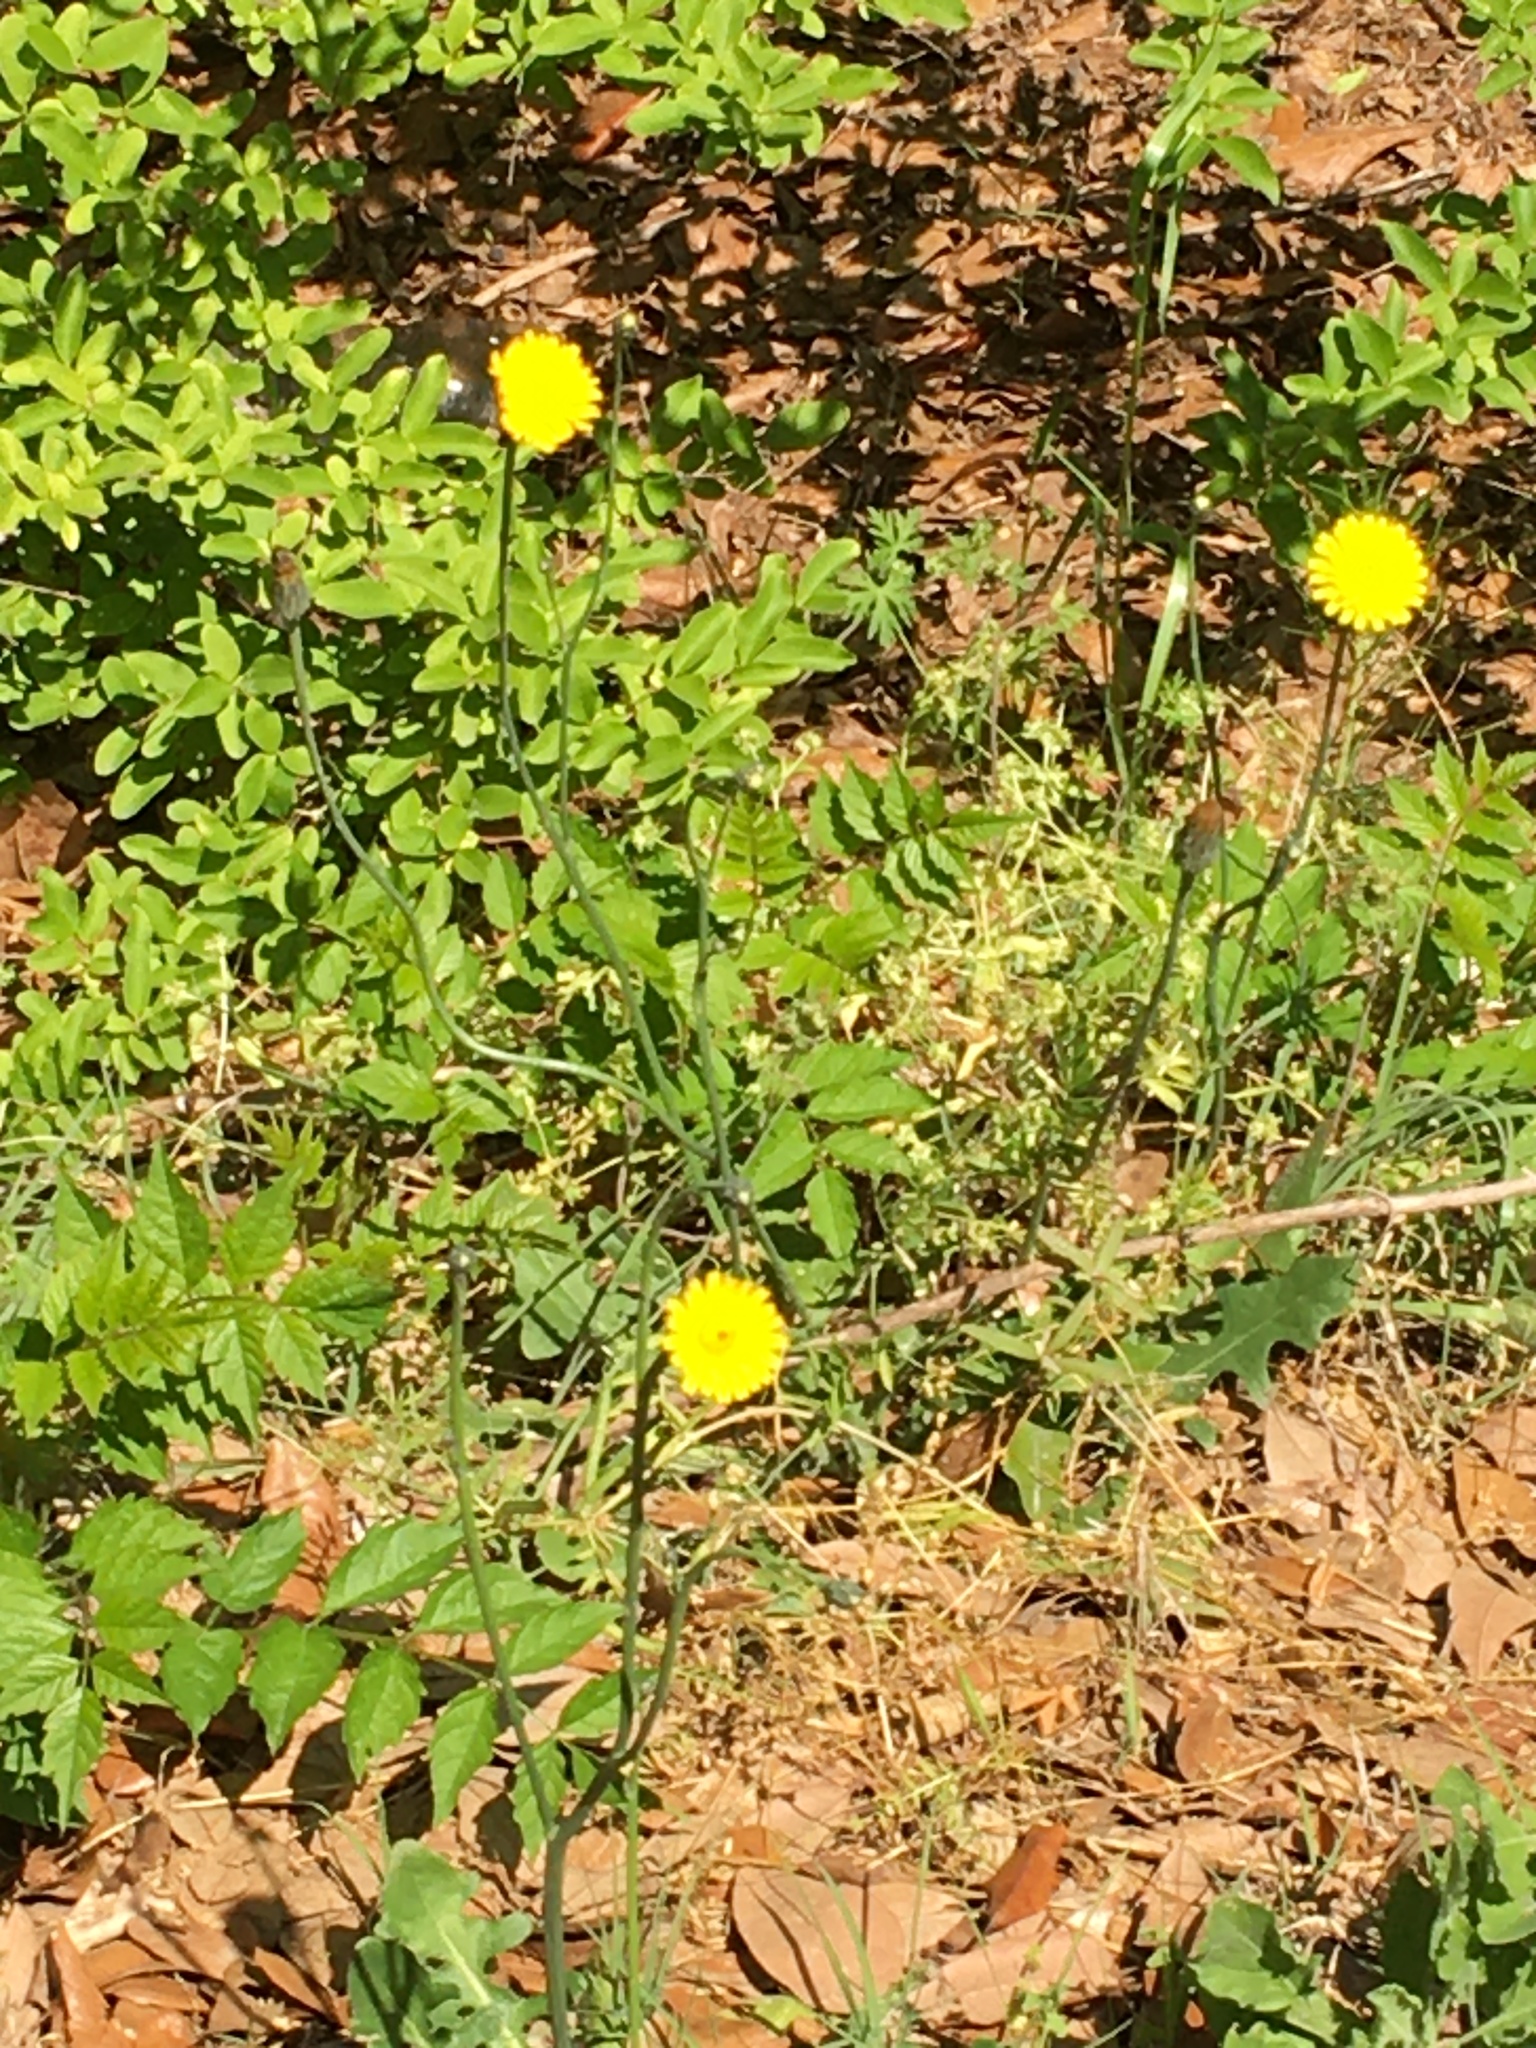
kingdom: Plantae
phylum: Tracheophyta
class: Magnoliopsida
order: Asterales
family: Asteraceae
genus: Hypochaeris
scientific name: Hypochaeris radicata
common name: Flatweed
